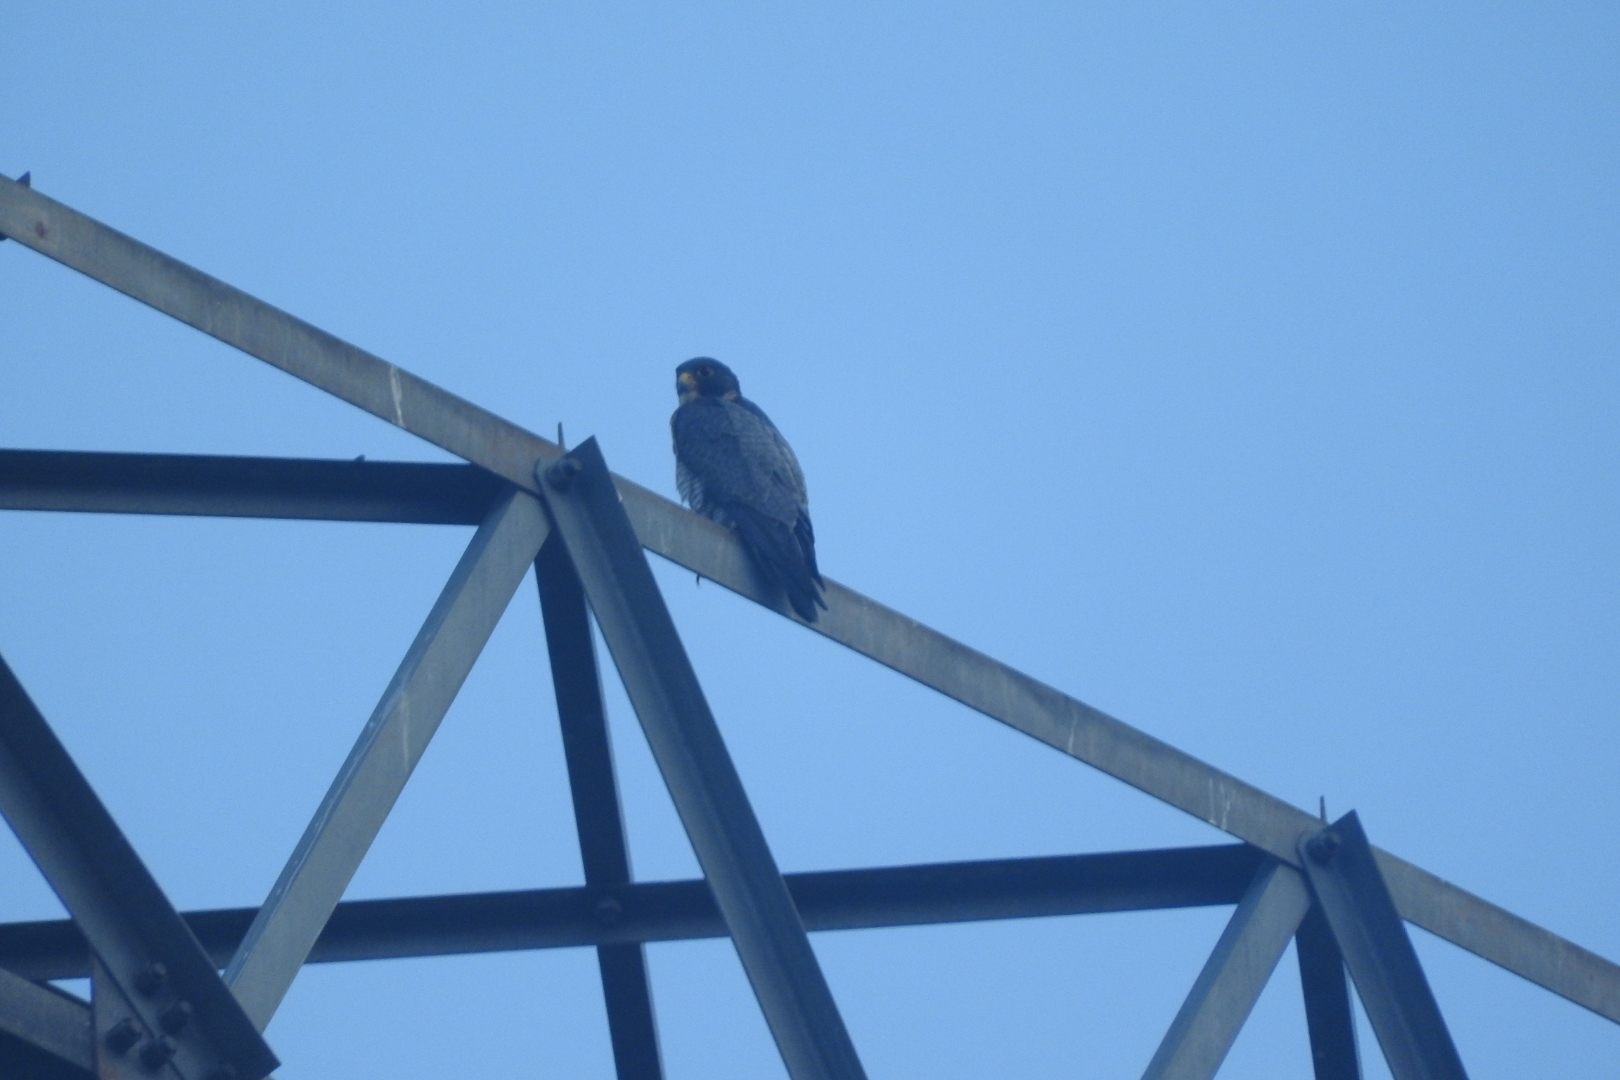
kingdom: Animalia
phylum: Chordata
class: Aves
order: Falconiformes
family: Falconidae
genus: Falco
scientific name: Falco peregrinus
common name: Peregrine falcon
